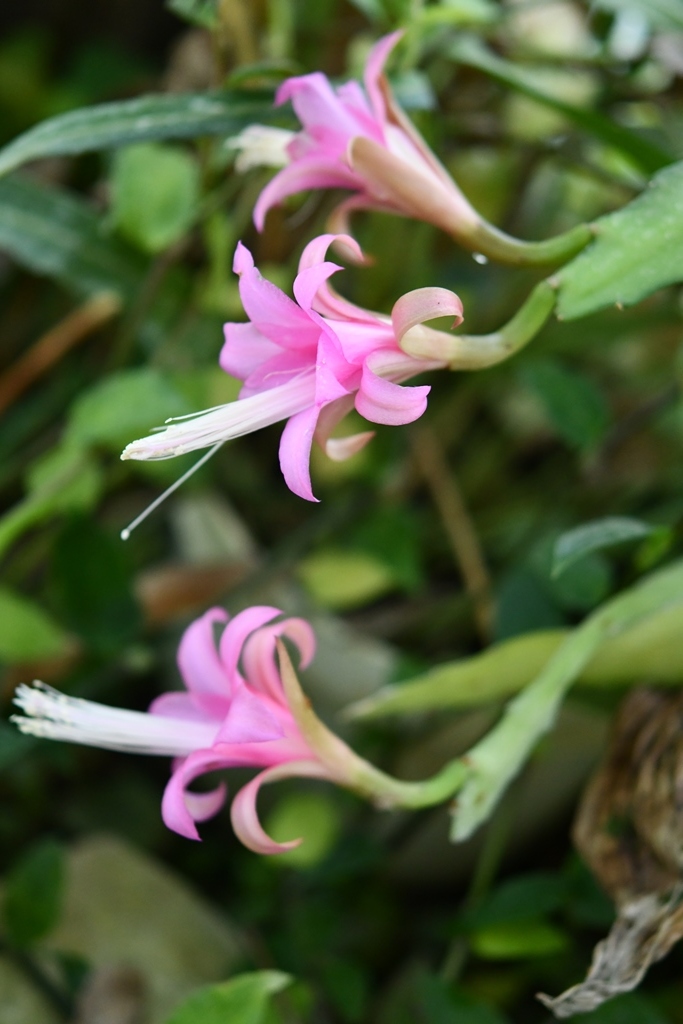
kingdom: Plantae
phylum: Tracheophyta
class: Magnoliopsida
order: Caryophyllales
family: Cactaceae
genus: Disocactus
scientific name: Disocactus nelsonii
